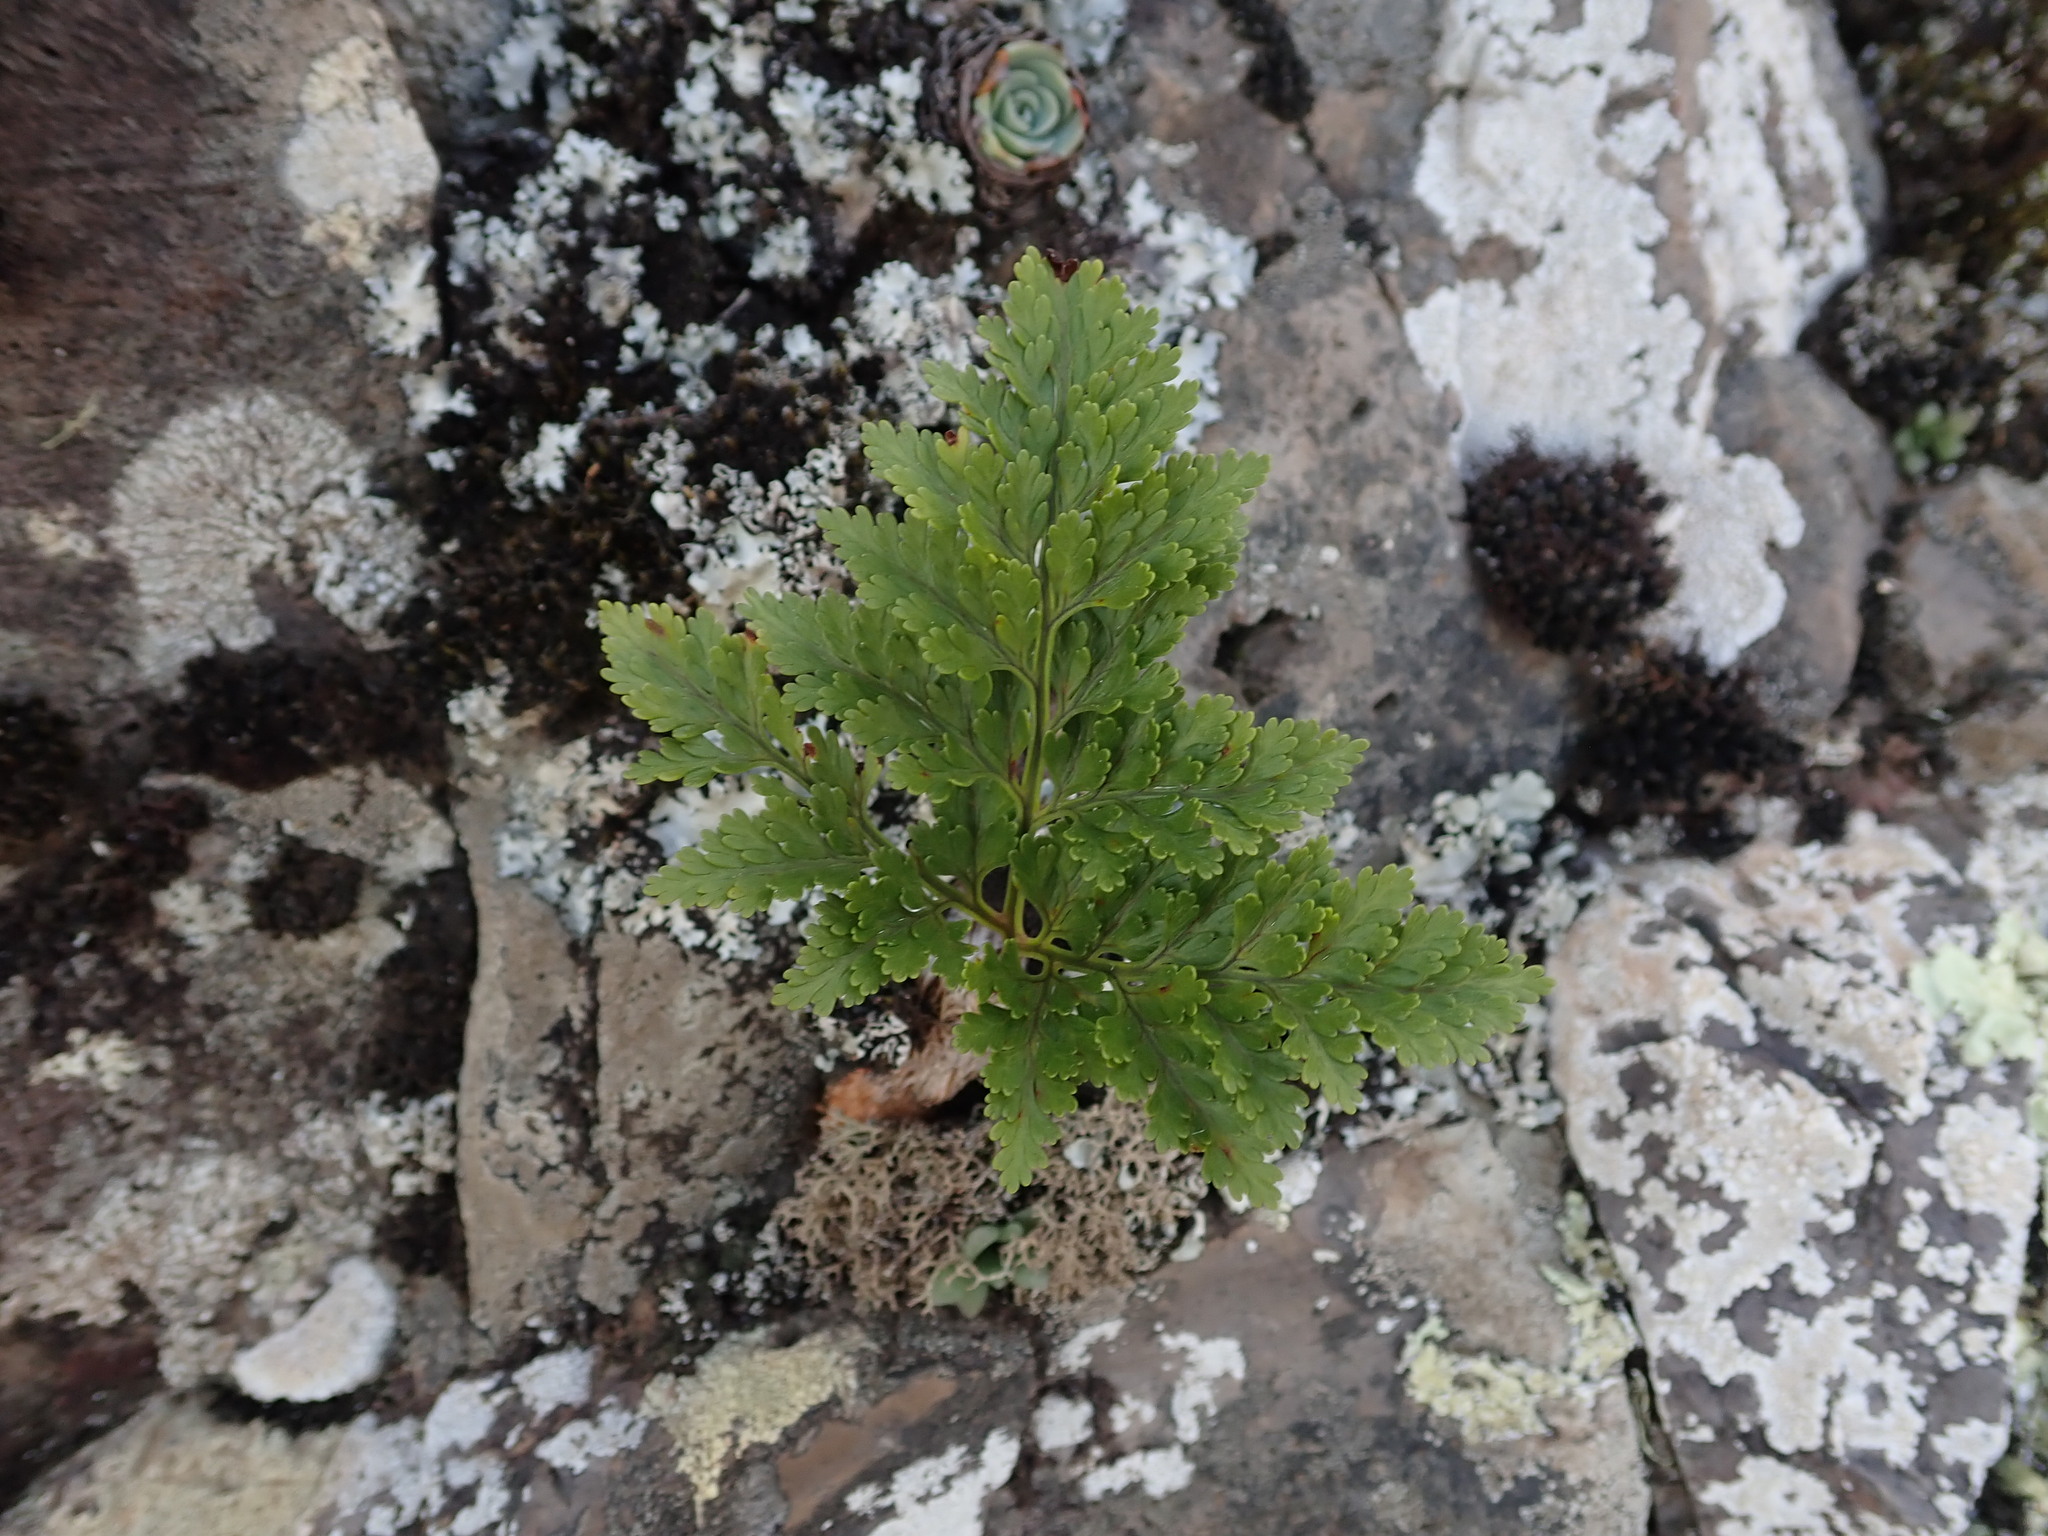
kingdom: Plantae
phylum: Tracheophyta
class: Polypodiopsida
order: Polypodiales
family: Davalliaceae
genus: Davallia
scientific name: Davallia canariensis
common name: Hare's-foot fern
